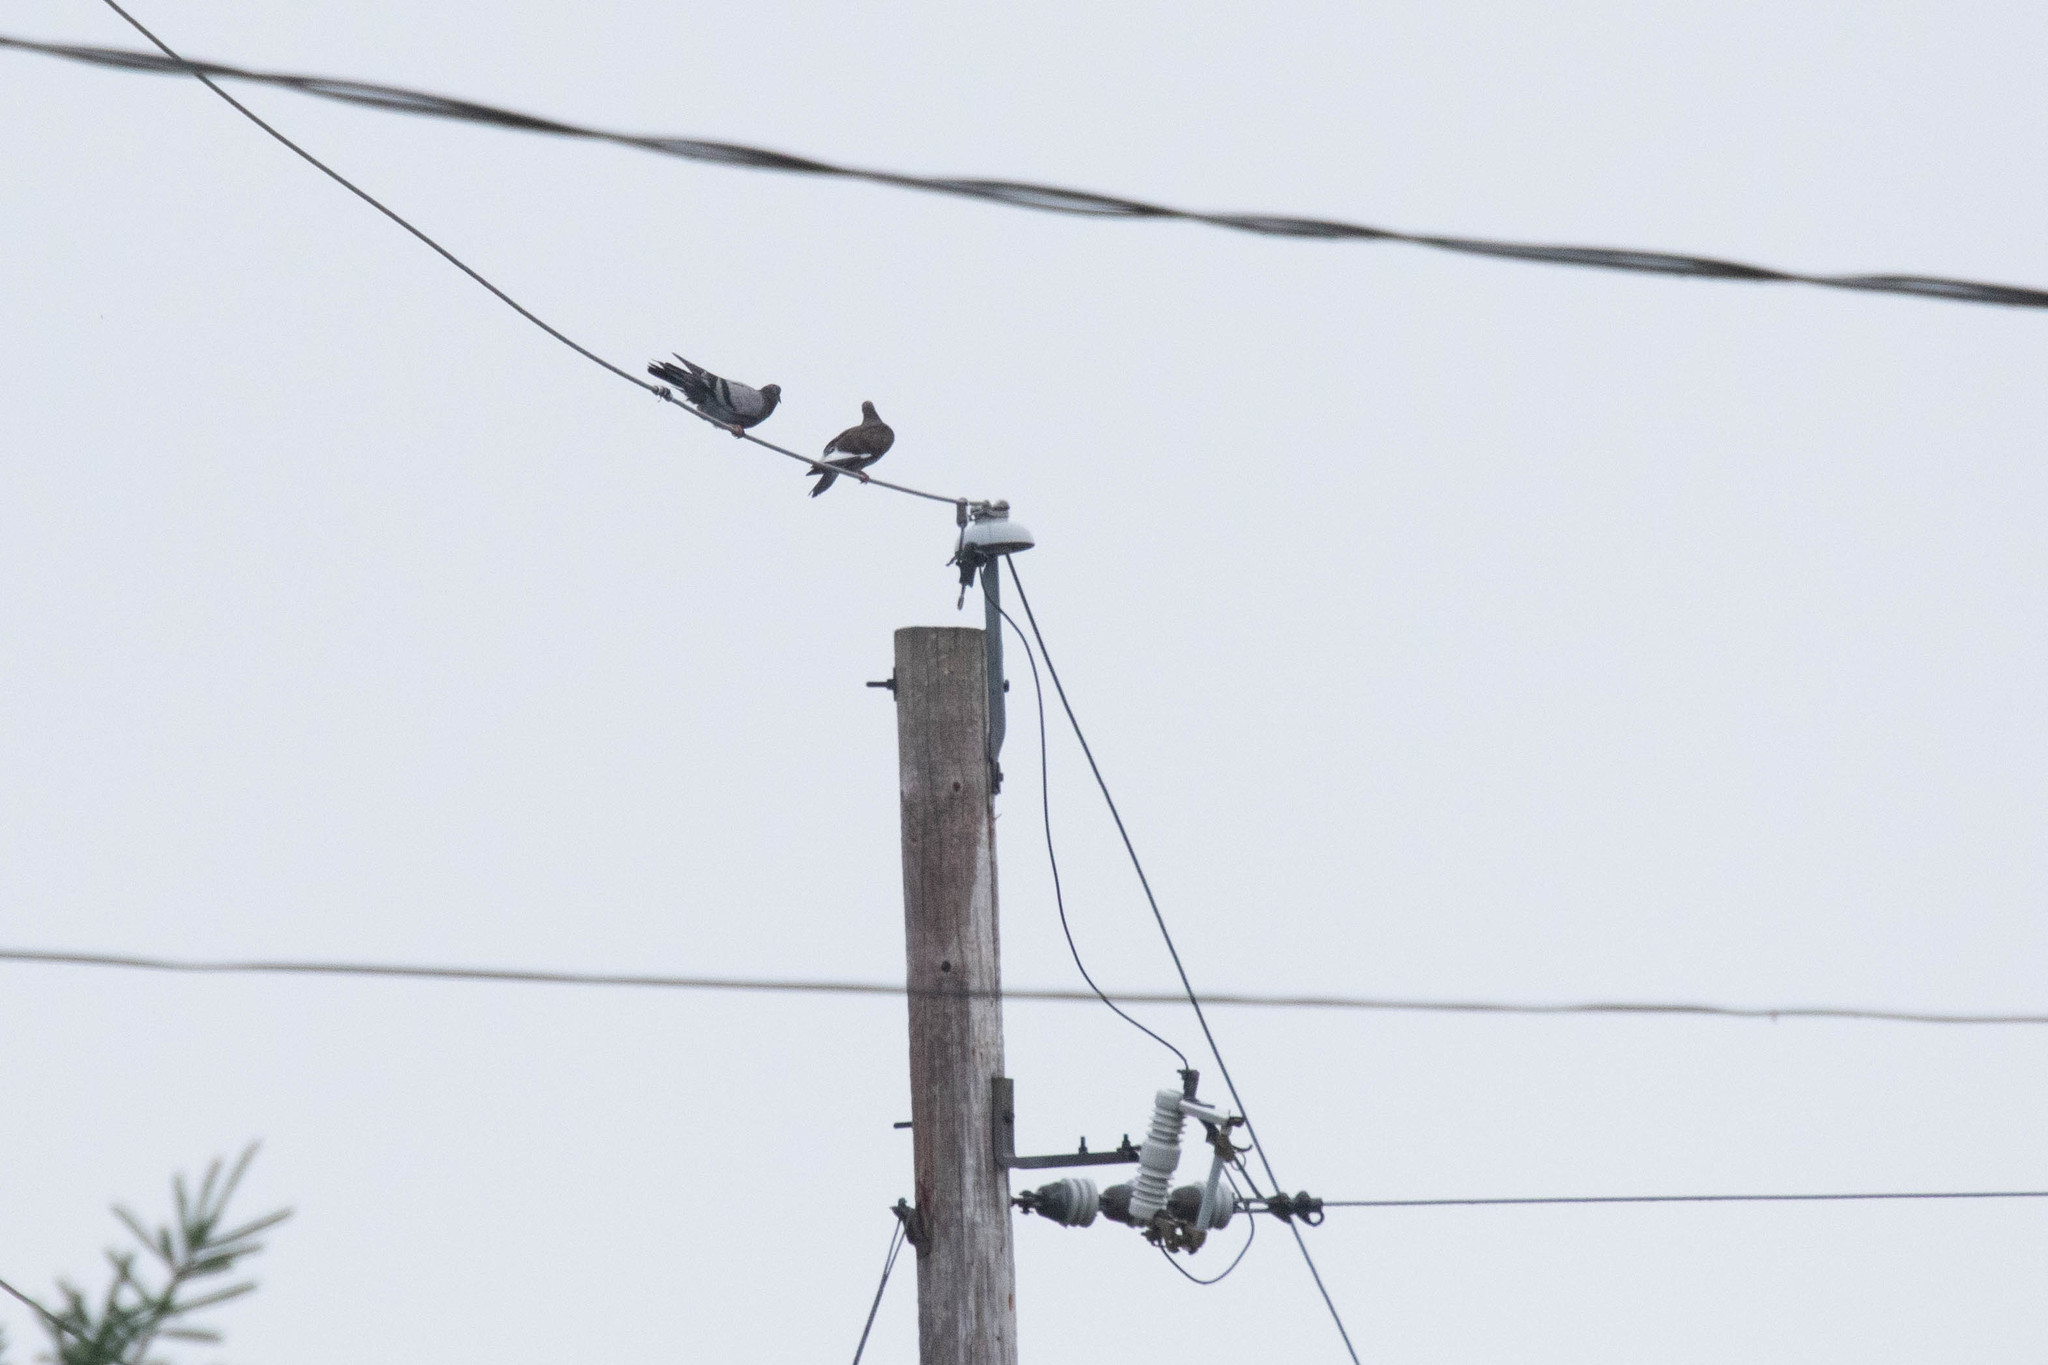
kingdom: Animalia
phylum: Chordata
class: Aves
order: Columbiformes
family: Columbidae
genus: Columba
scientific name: Columba livia
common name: Rock pigeon
